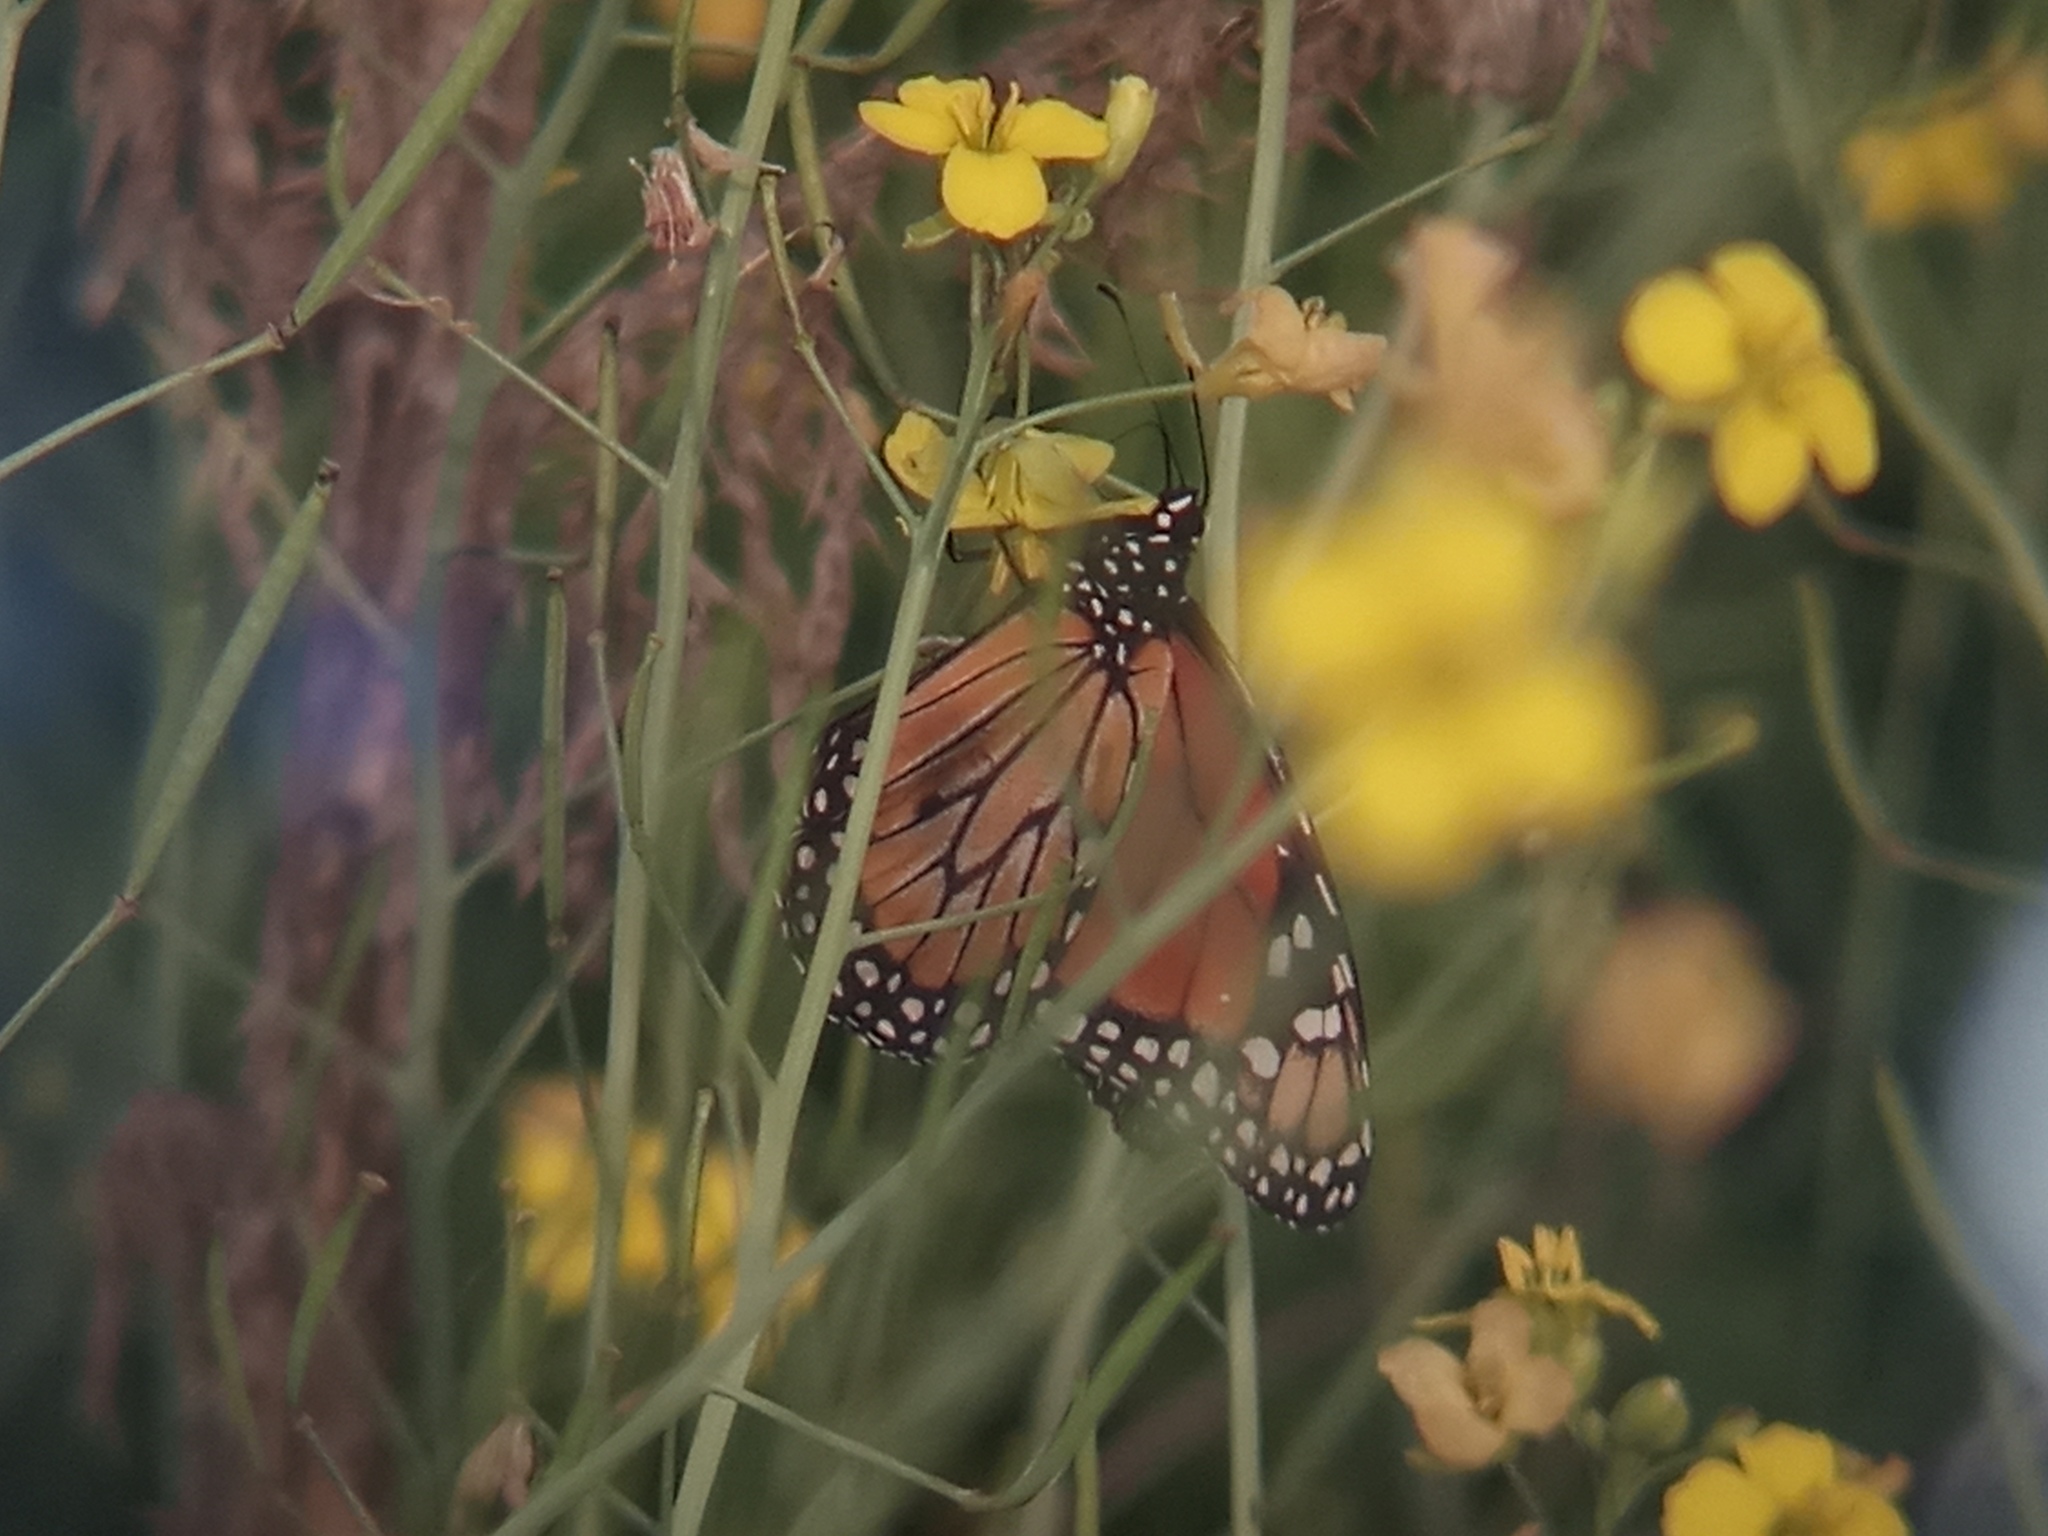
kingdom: Animalia
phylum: Arthropoda
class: Insecta
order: Lepidoptera
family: Nymphalidae
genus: Danaus
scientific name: Danaus erippus
